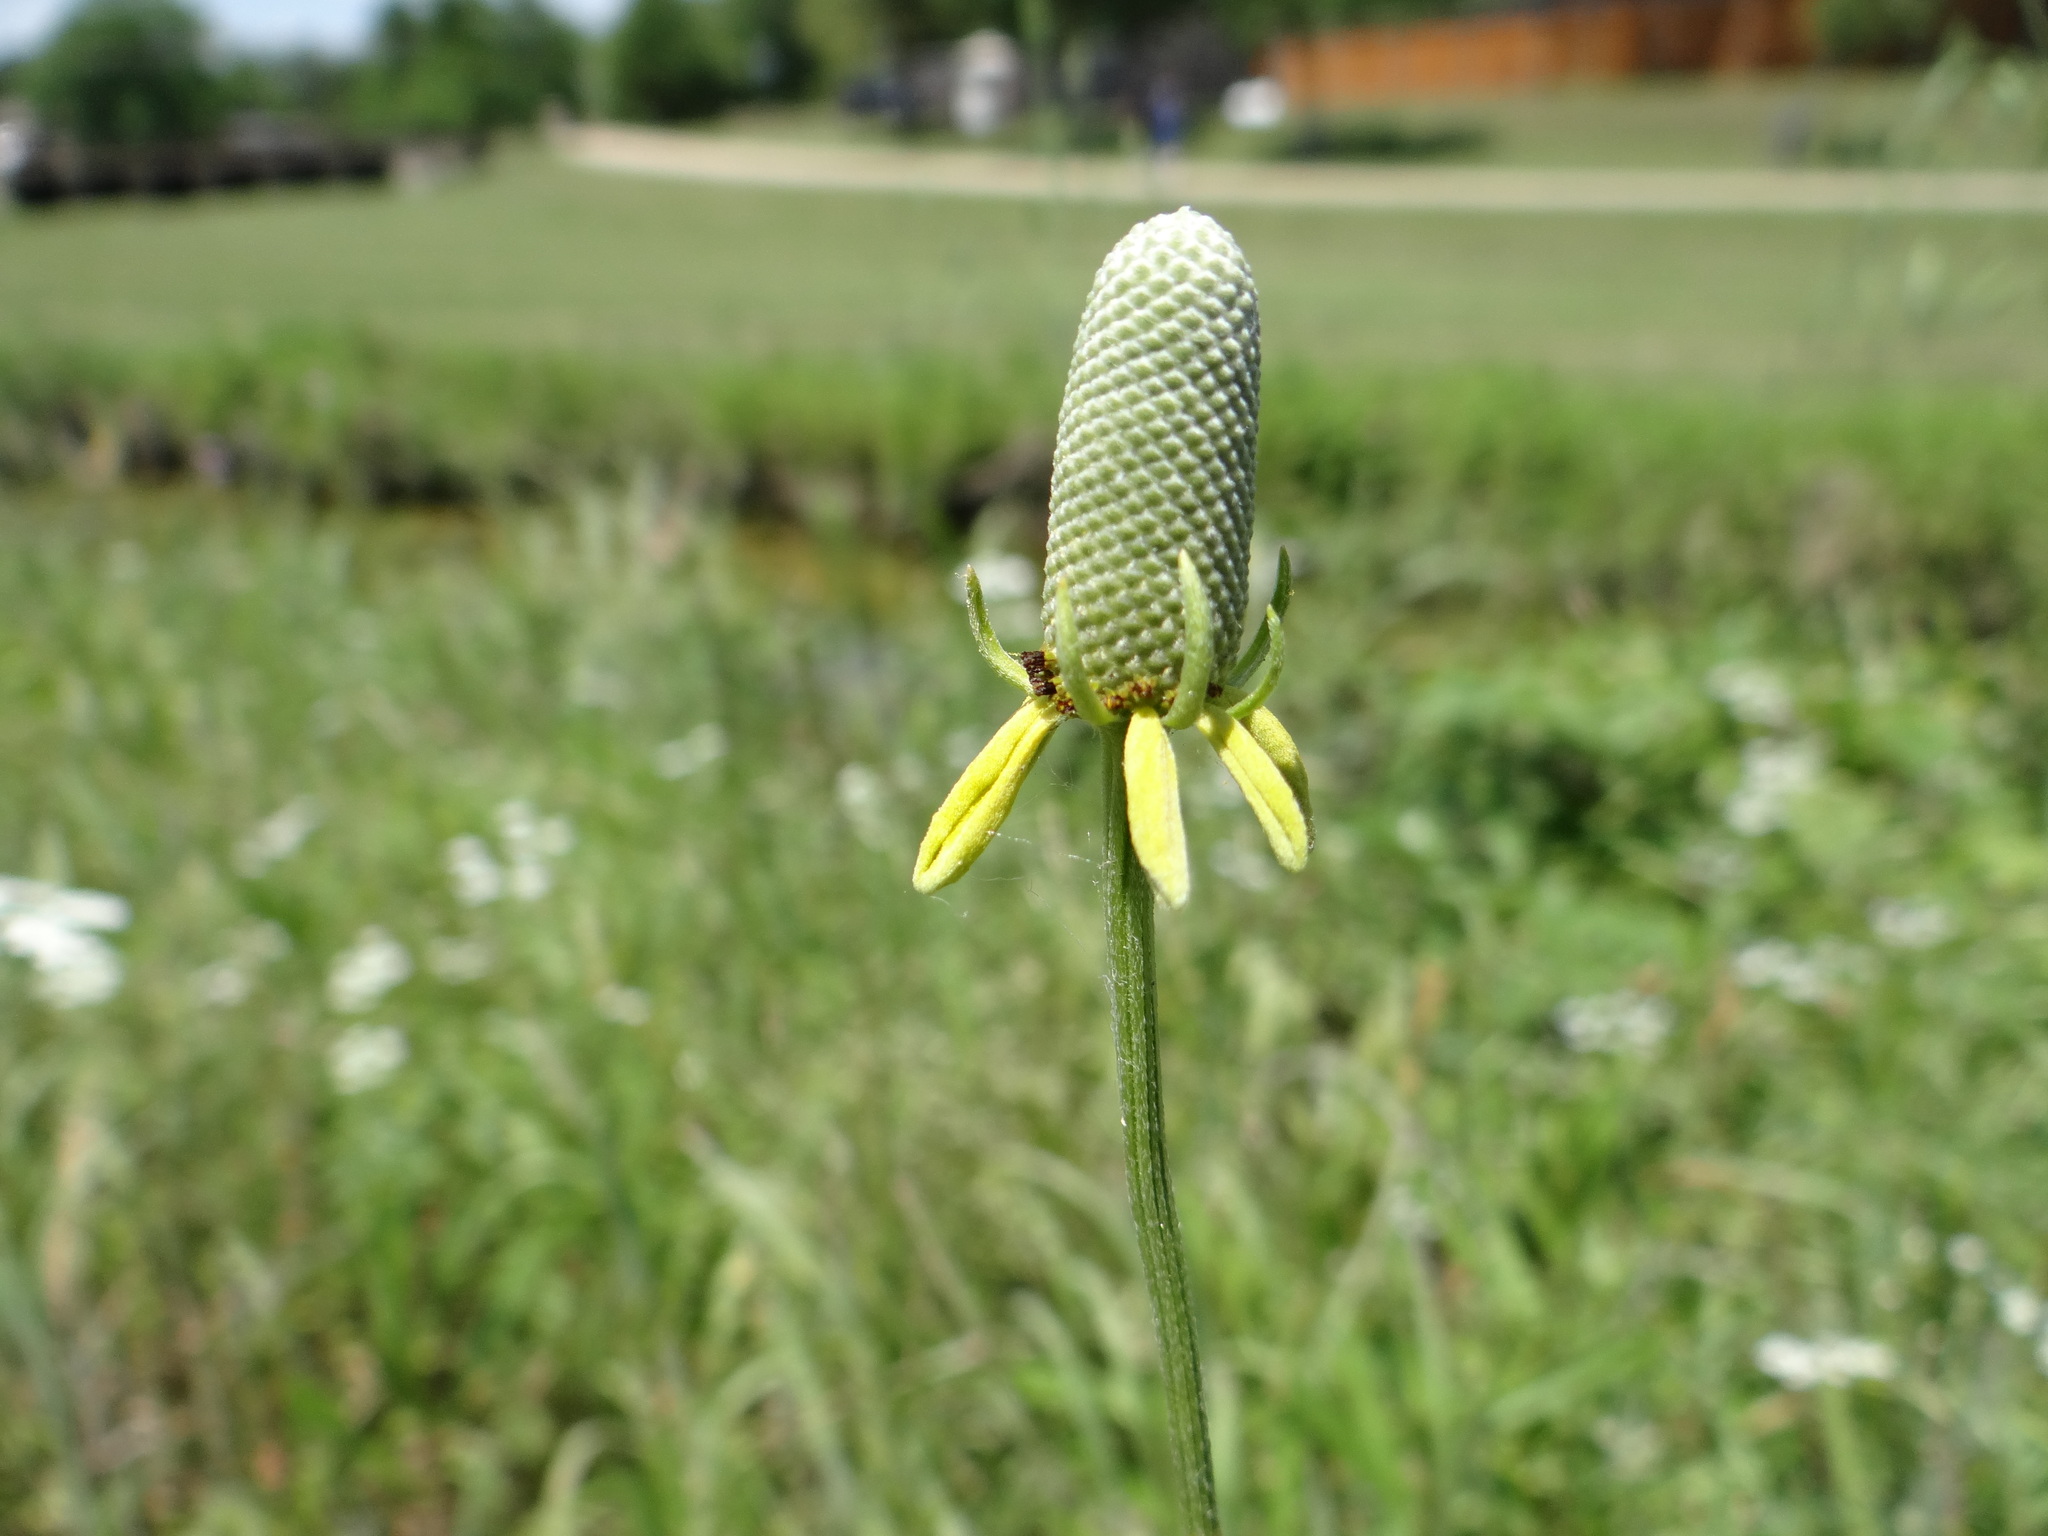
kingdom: Plantae
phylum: Tracheophyta
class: Magnoliopsida
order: Asterales
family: Asteraceae
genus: Ratibida
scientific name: Ratibida columnifera
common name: Prairie coneflower
